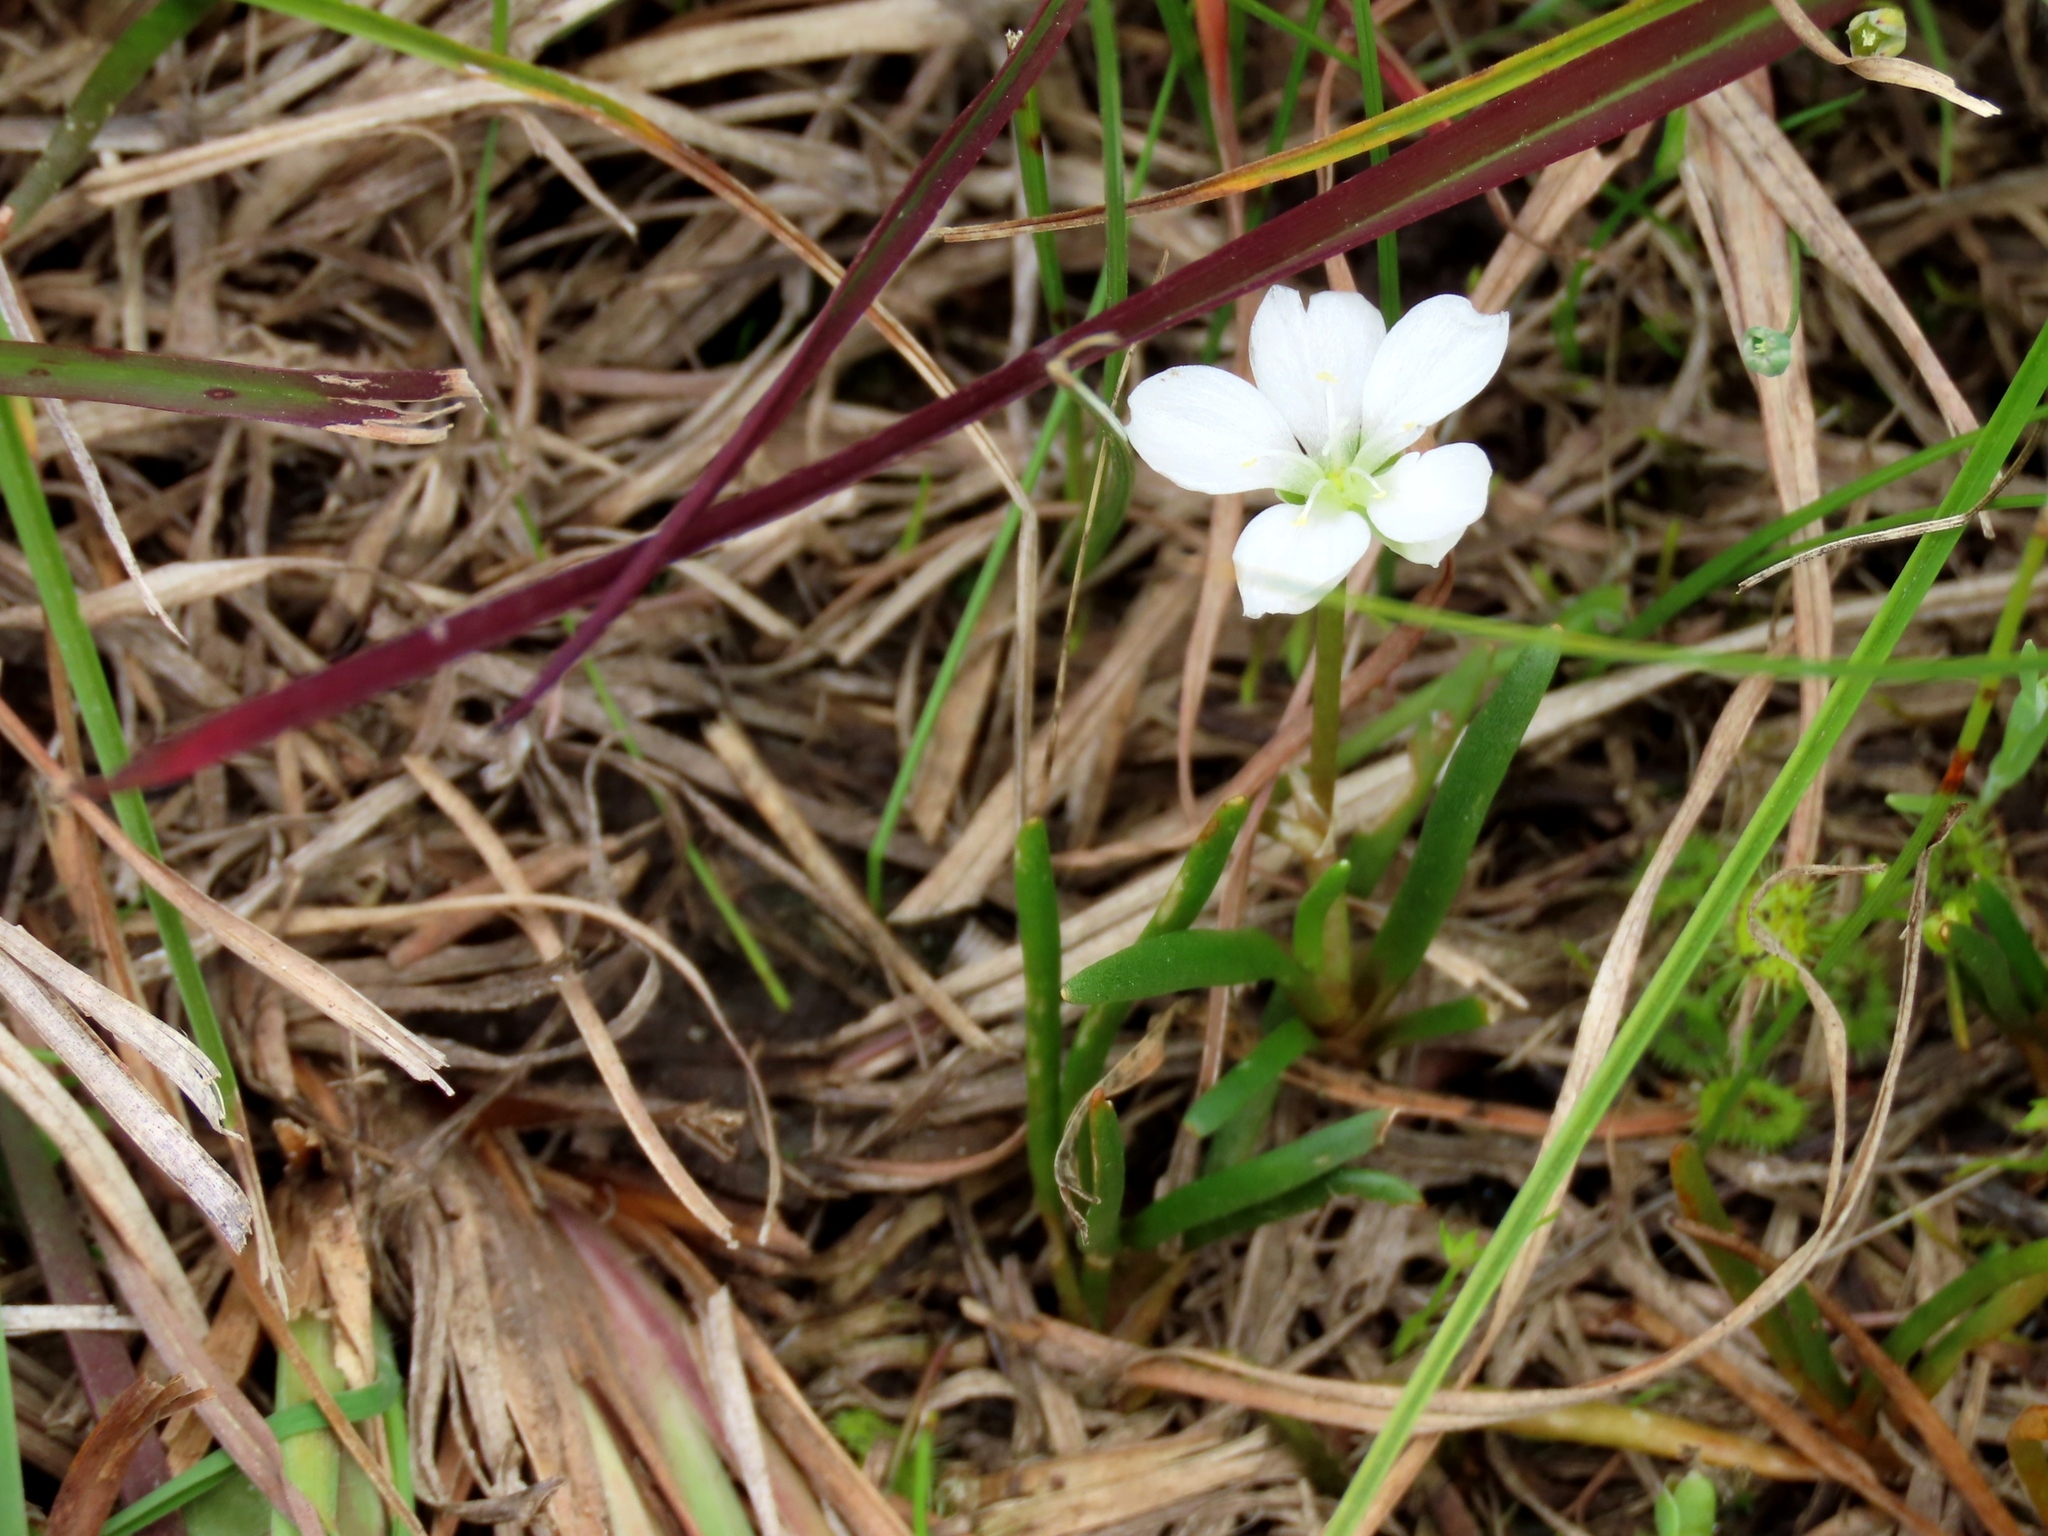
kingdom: Plantae
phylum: Tracheophyta
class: Magnoliopsida
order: Caryophyllales
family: Montiaceae
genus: Montia
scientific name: Montia australasica
